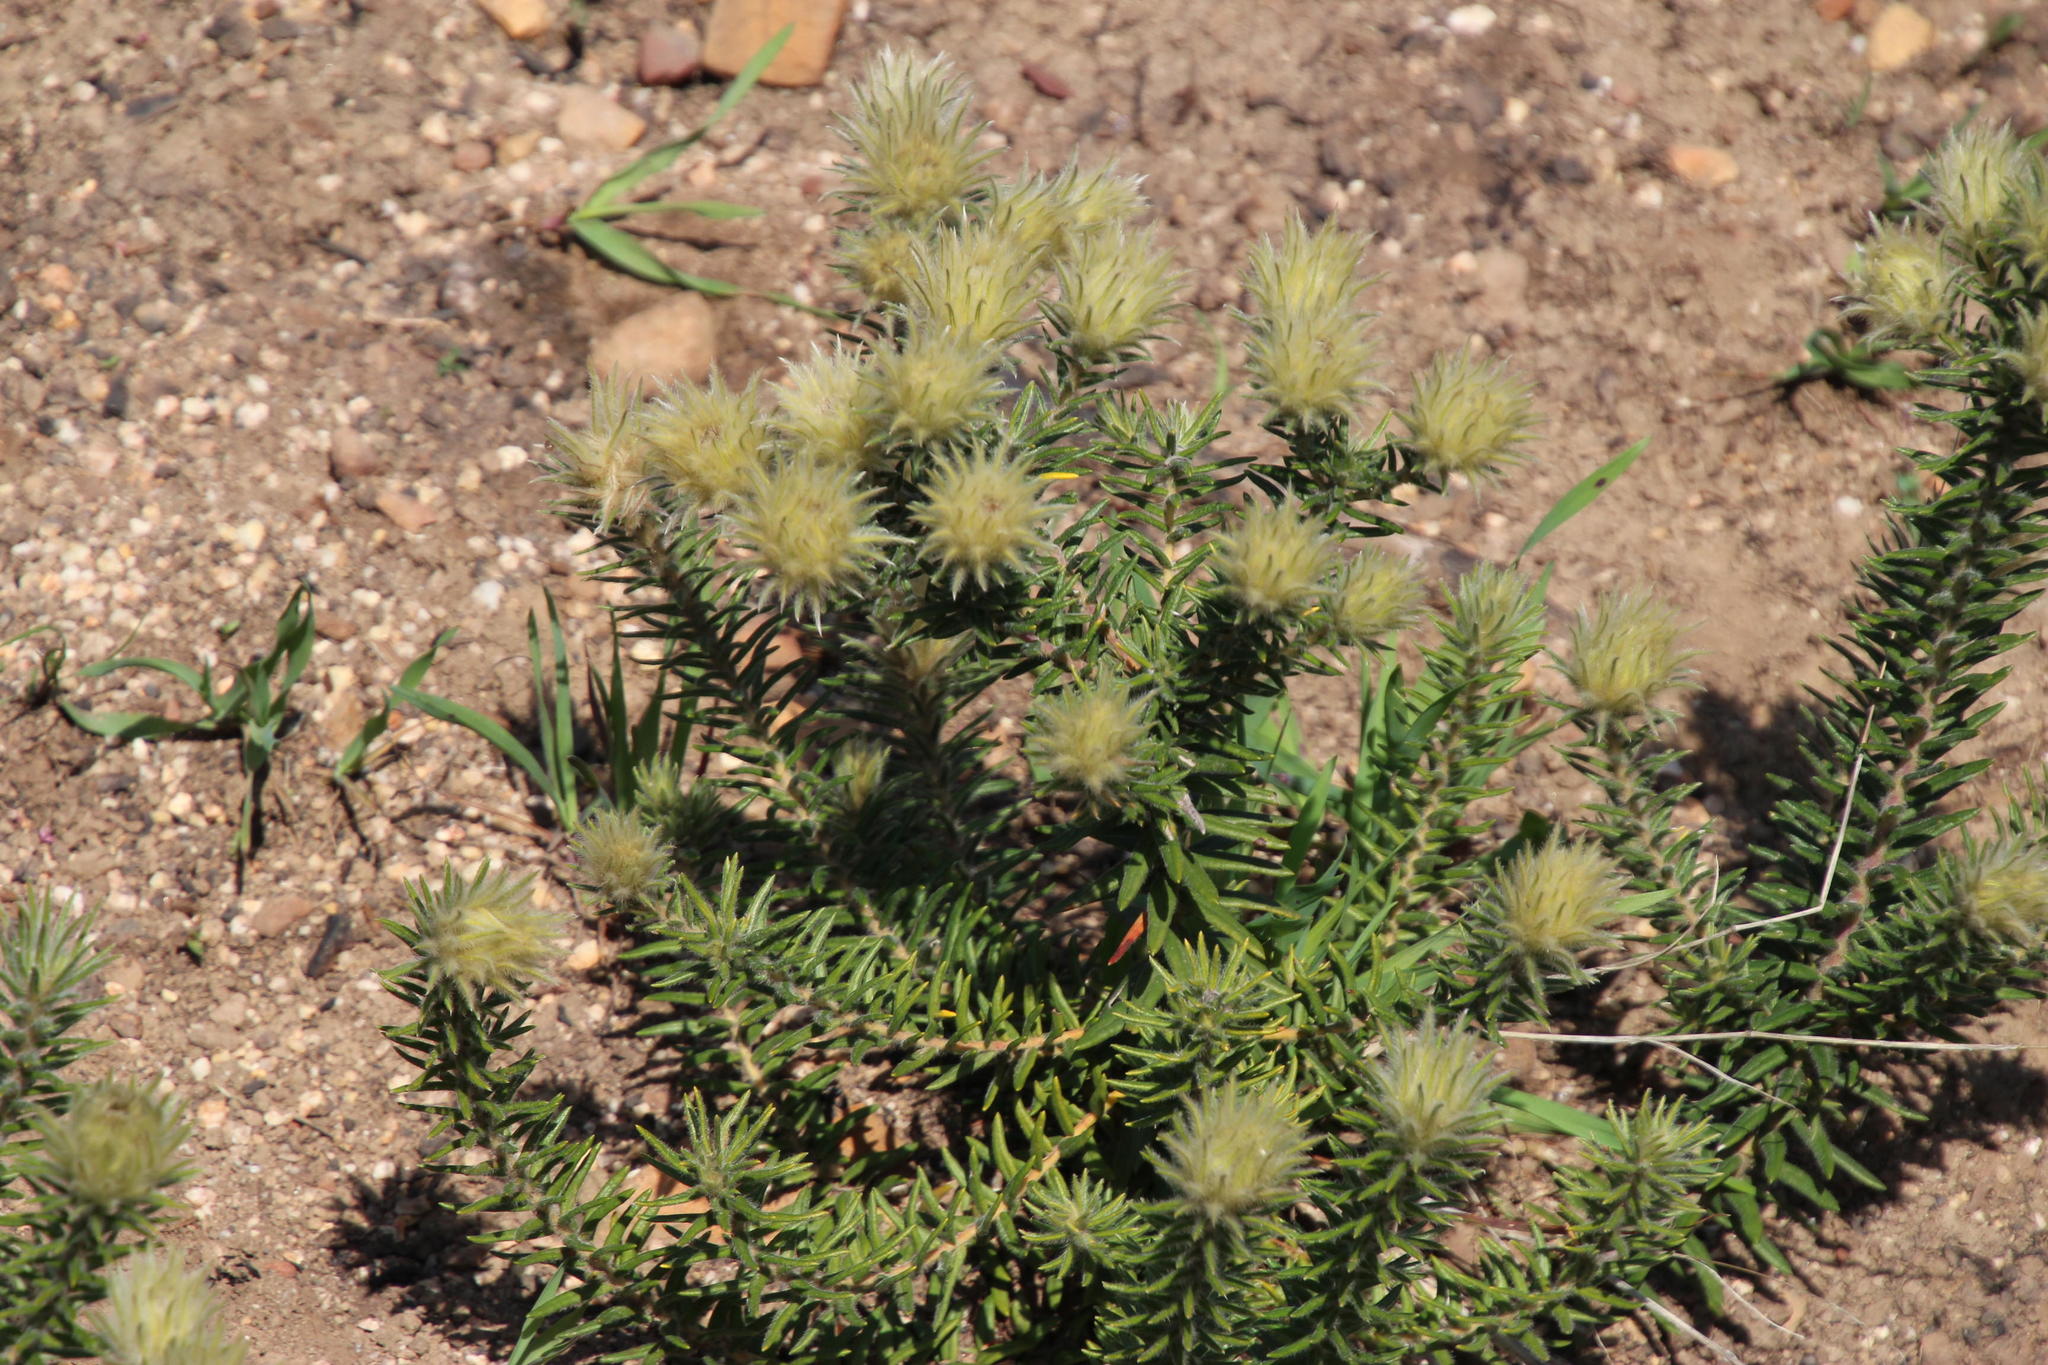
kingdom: Plantae
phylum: Tracheophyta
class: Magnoliopsida
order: Rosales
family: Rhamnaceae
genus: Phylica
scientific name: Phylica pubescens
